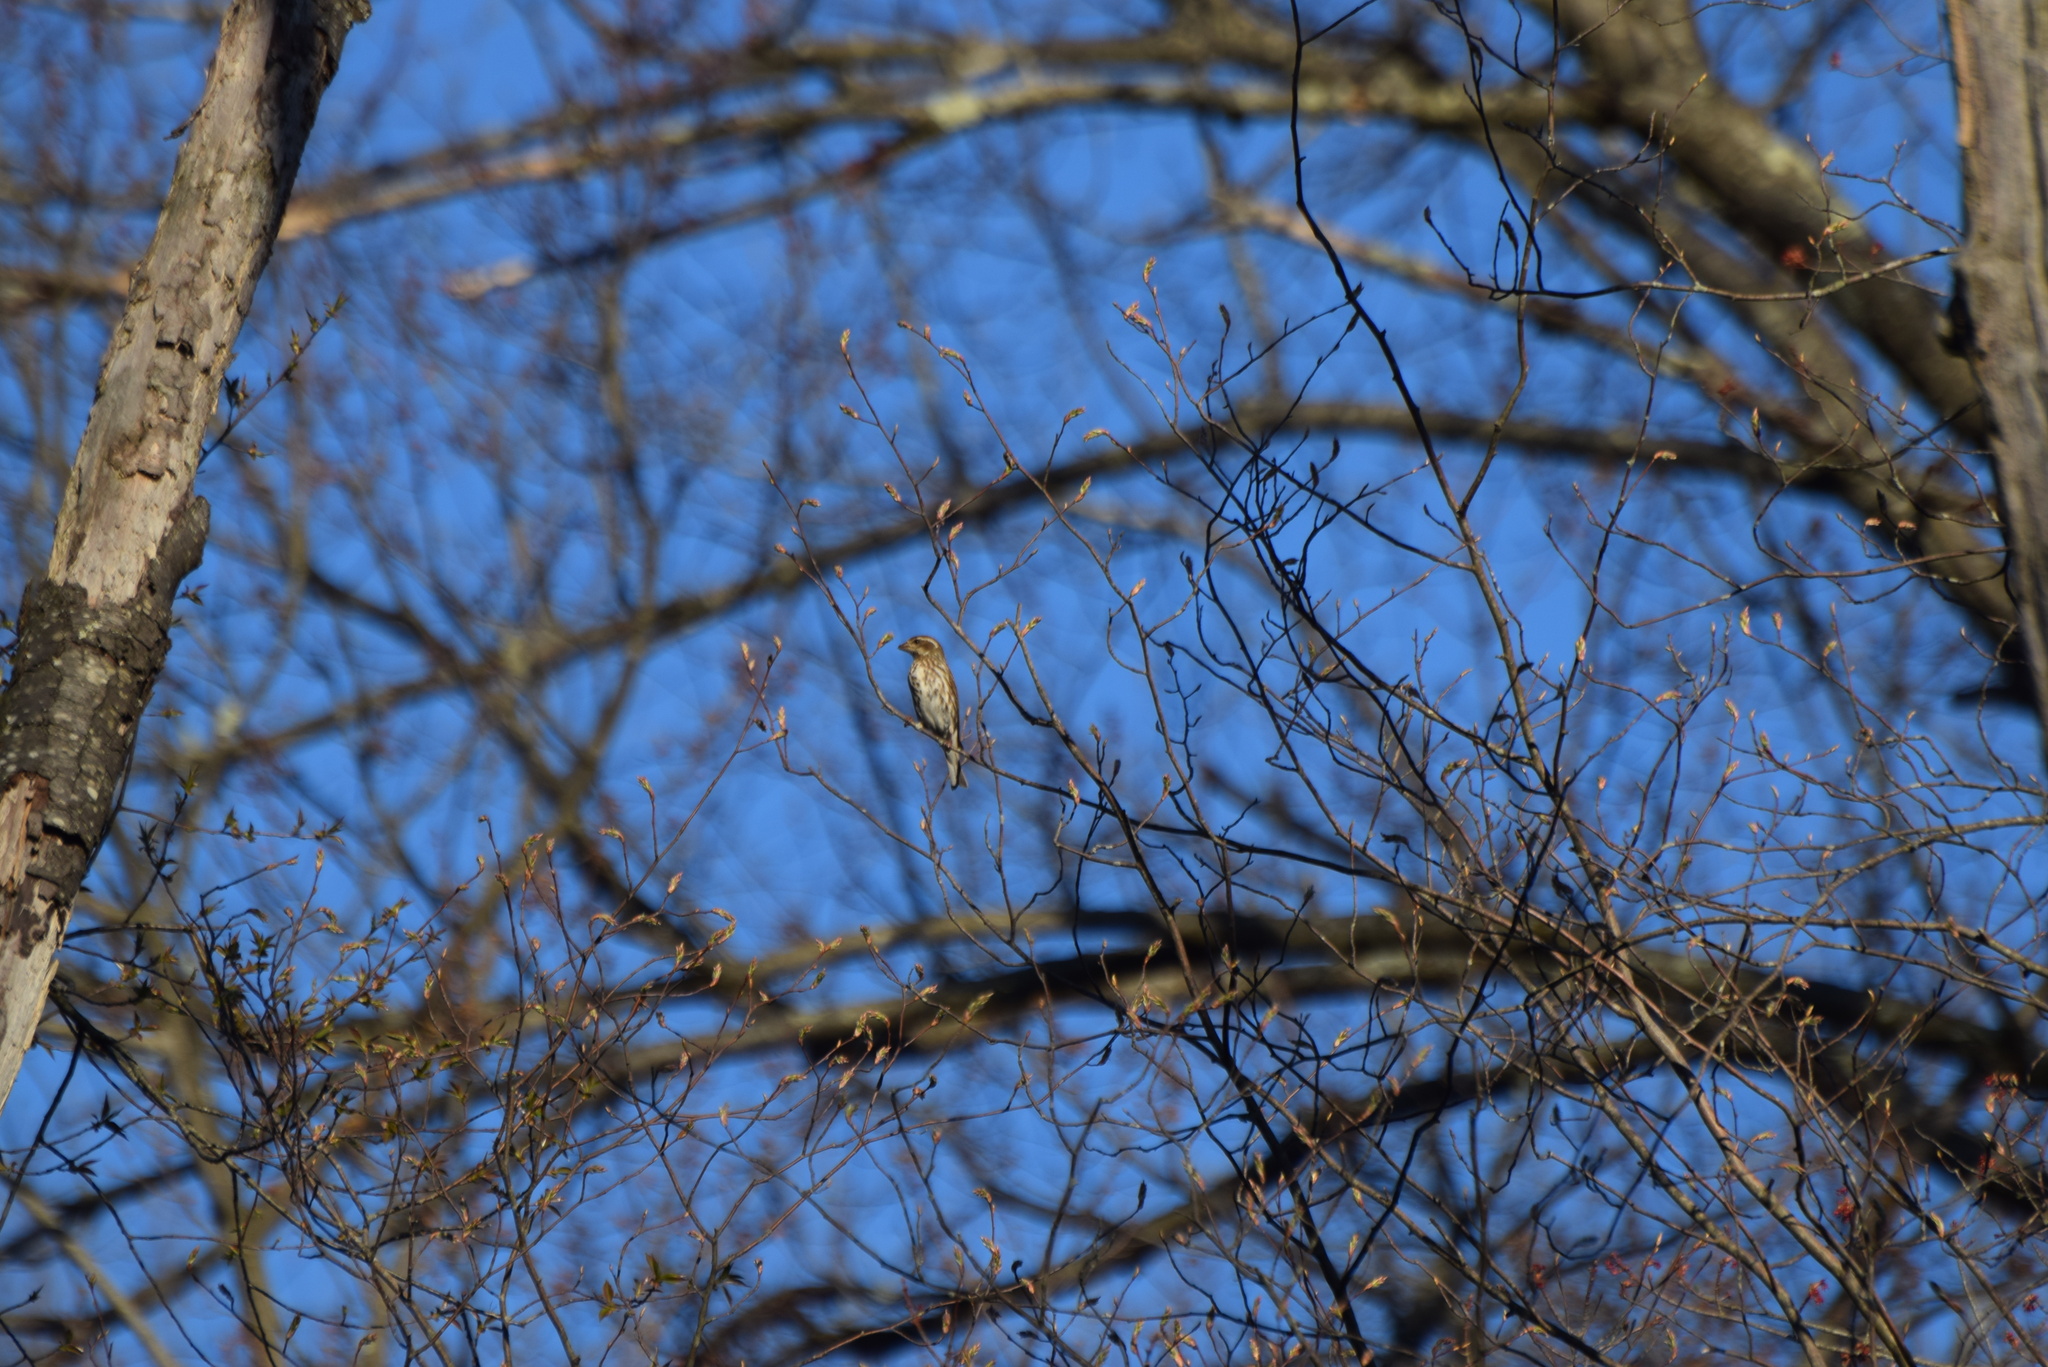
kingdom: Animalia
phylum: Chordata
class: Aves
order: Passeriformes
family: Fringillidae
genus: Haemorhous
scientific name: Haemorhous purpureus
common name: Purple finch
